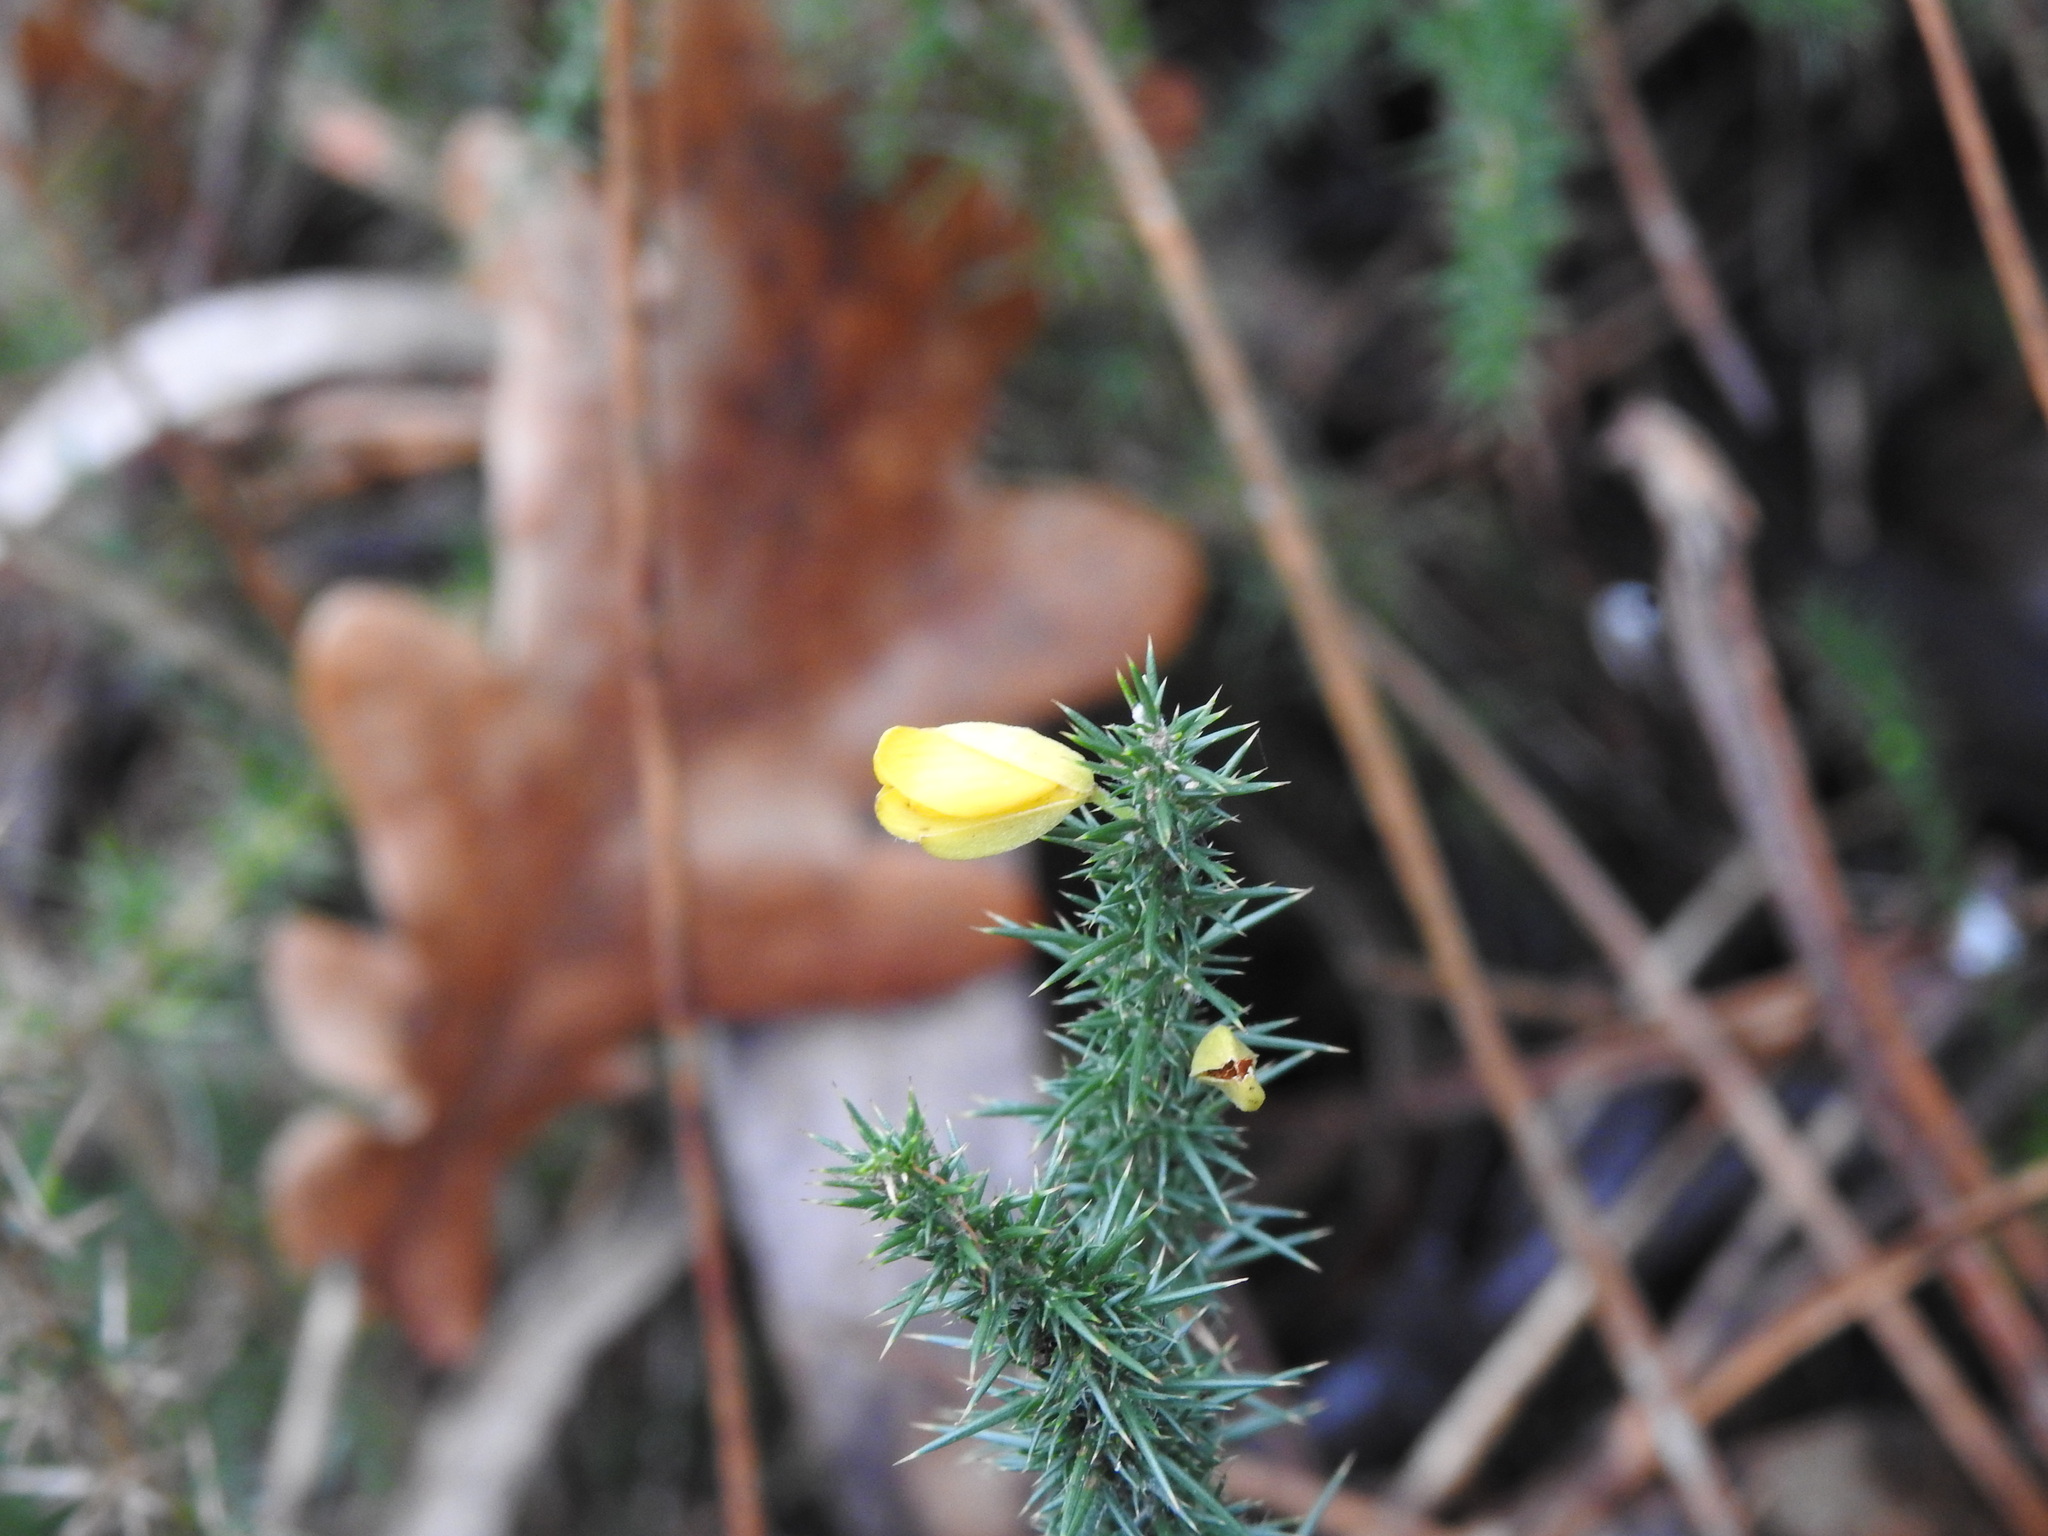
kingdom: Plantae
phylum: Tracheophyta
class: Magnoliopsida
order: Fabales
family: Fabaceae
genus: Ulex
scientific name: Ulex minor
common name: Dwarf gorse
